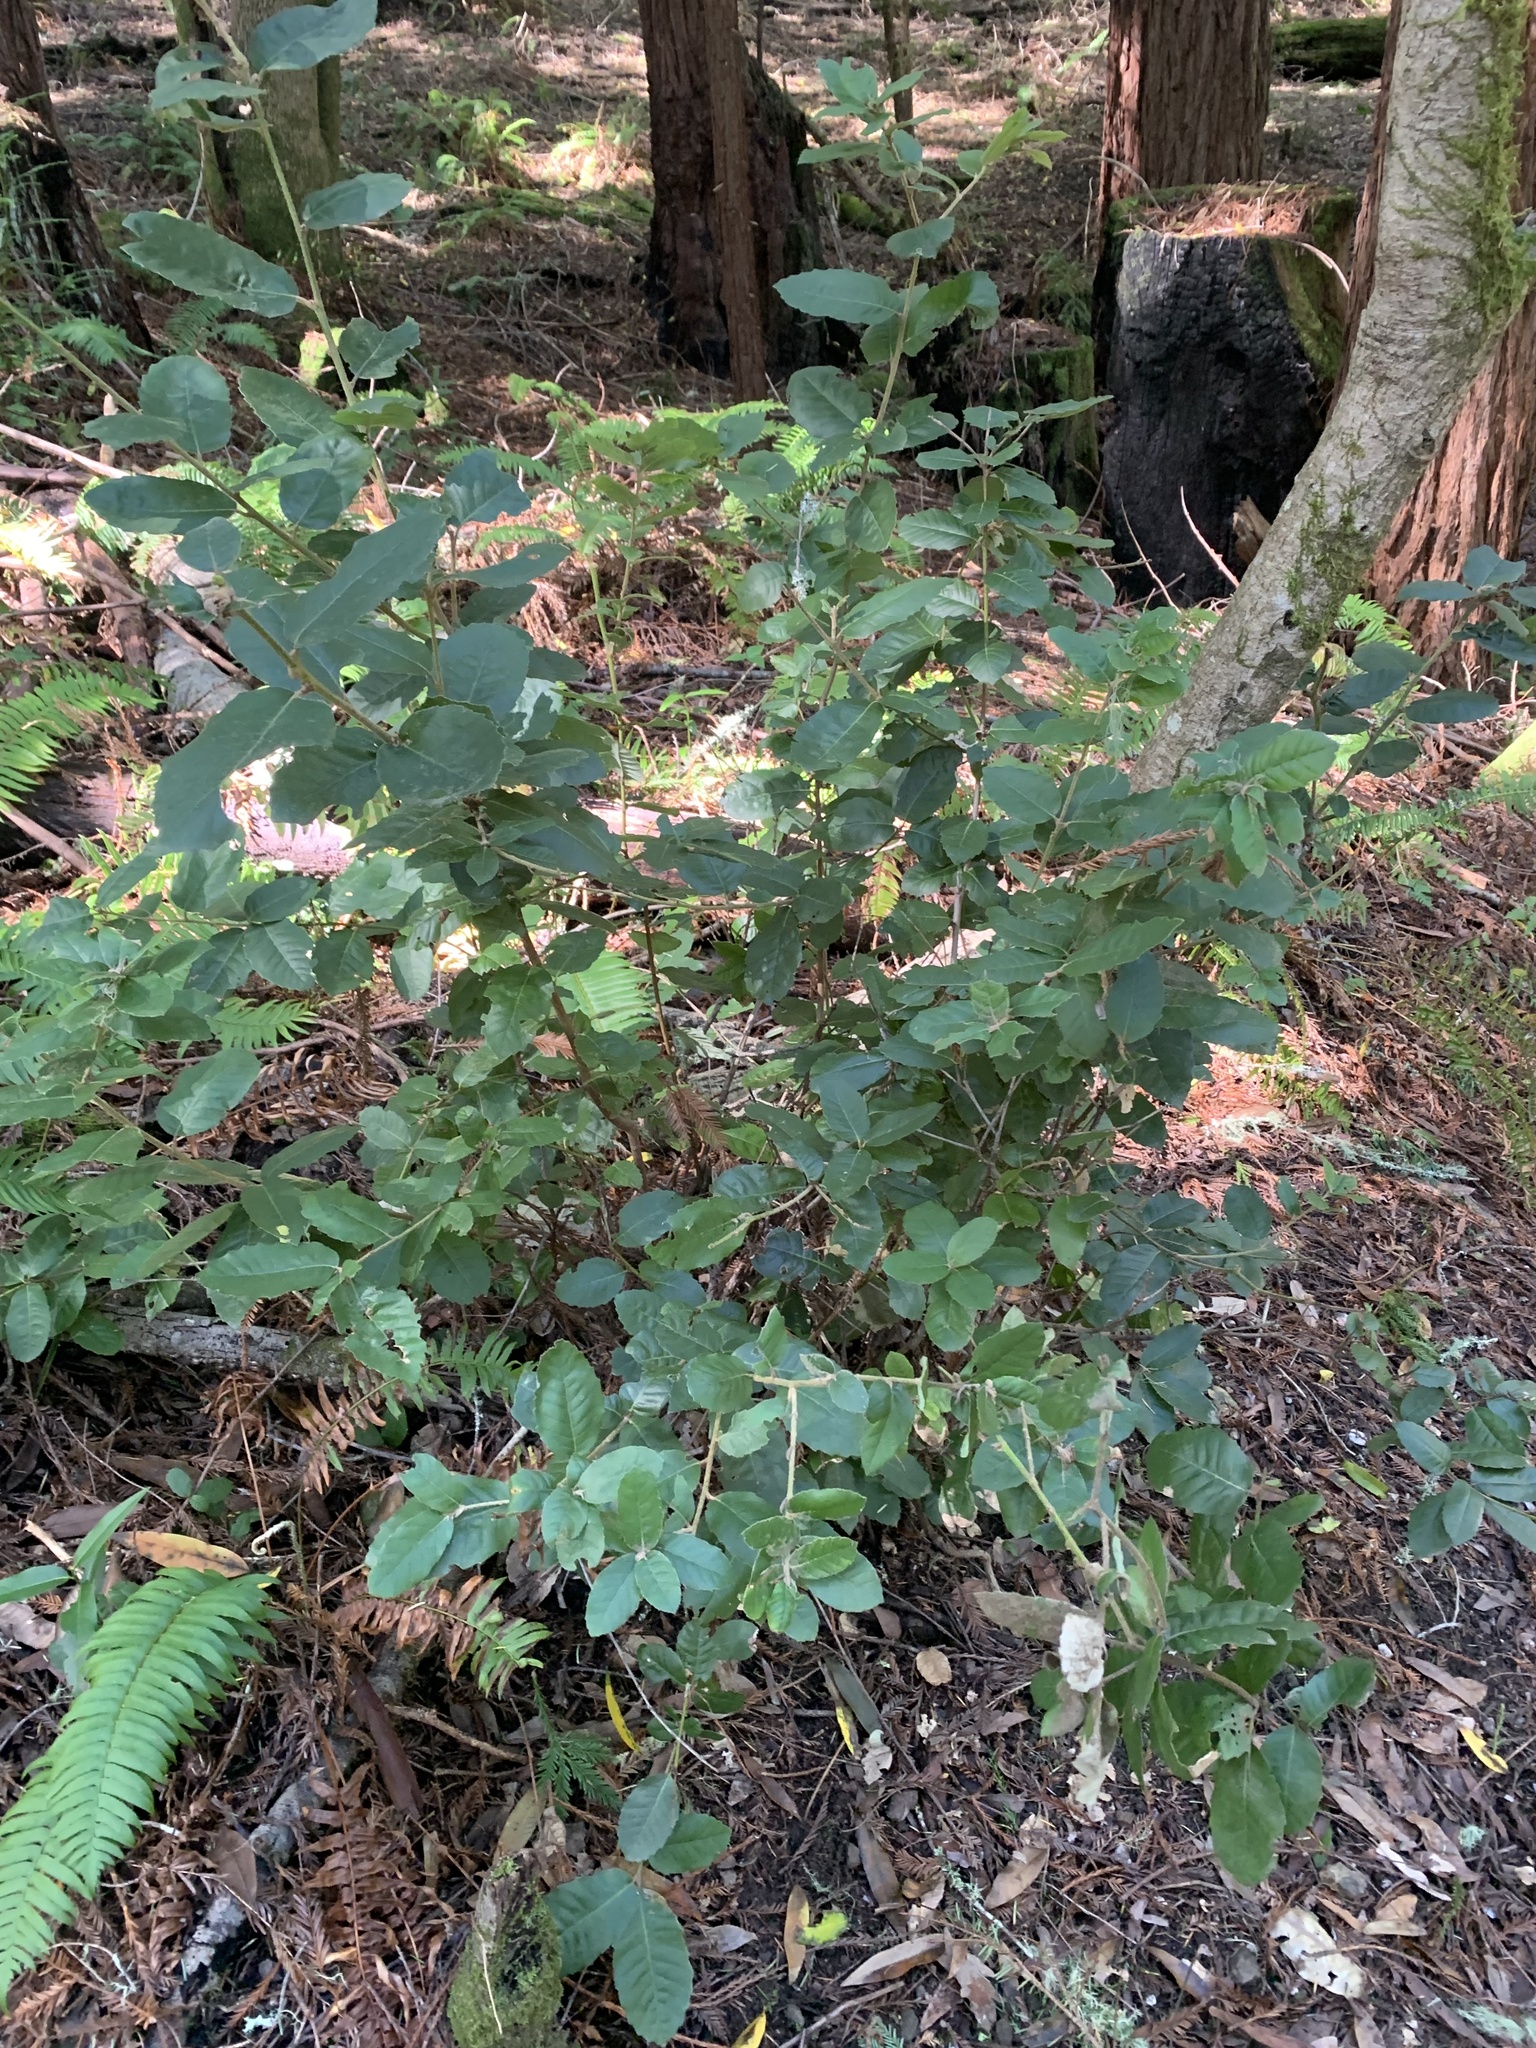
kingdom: Plantae
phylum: Tracheophyta
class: Magnoliopsida
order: Fagales
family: Fagaceae
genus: Notholithocarpus
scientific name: Notholithocarpus densiflorus
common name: Tan bark oak
